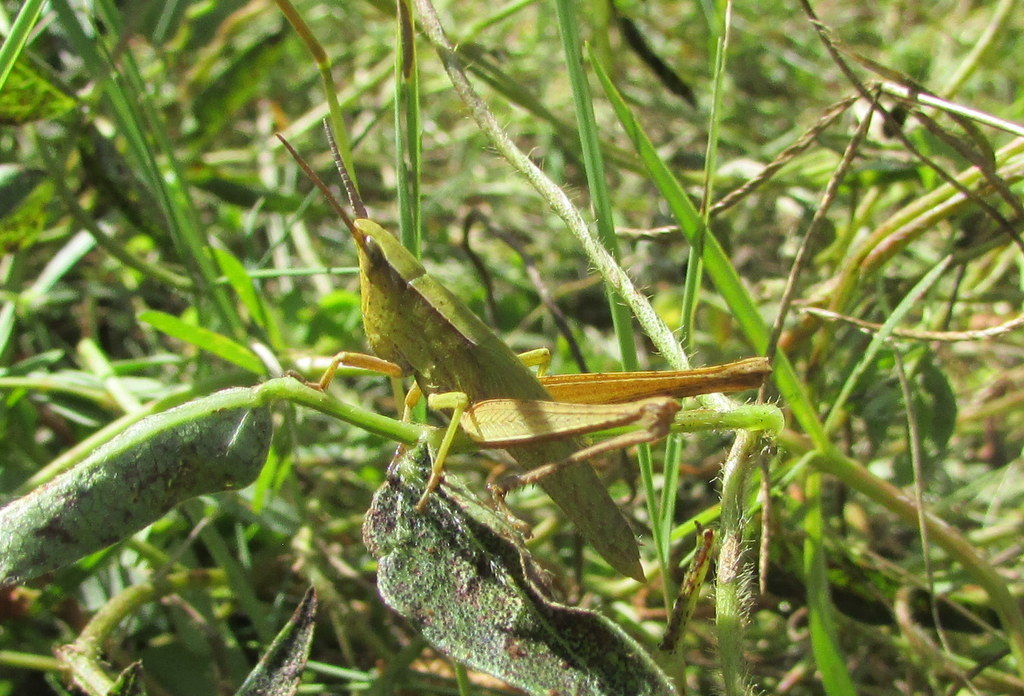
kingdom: Animalia
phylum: Arthropoda
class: Insecta
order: Orthoptera
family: Acrididae
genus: Metaleptea
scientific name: Metaleptea adspersa
